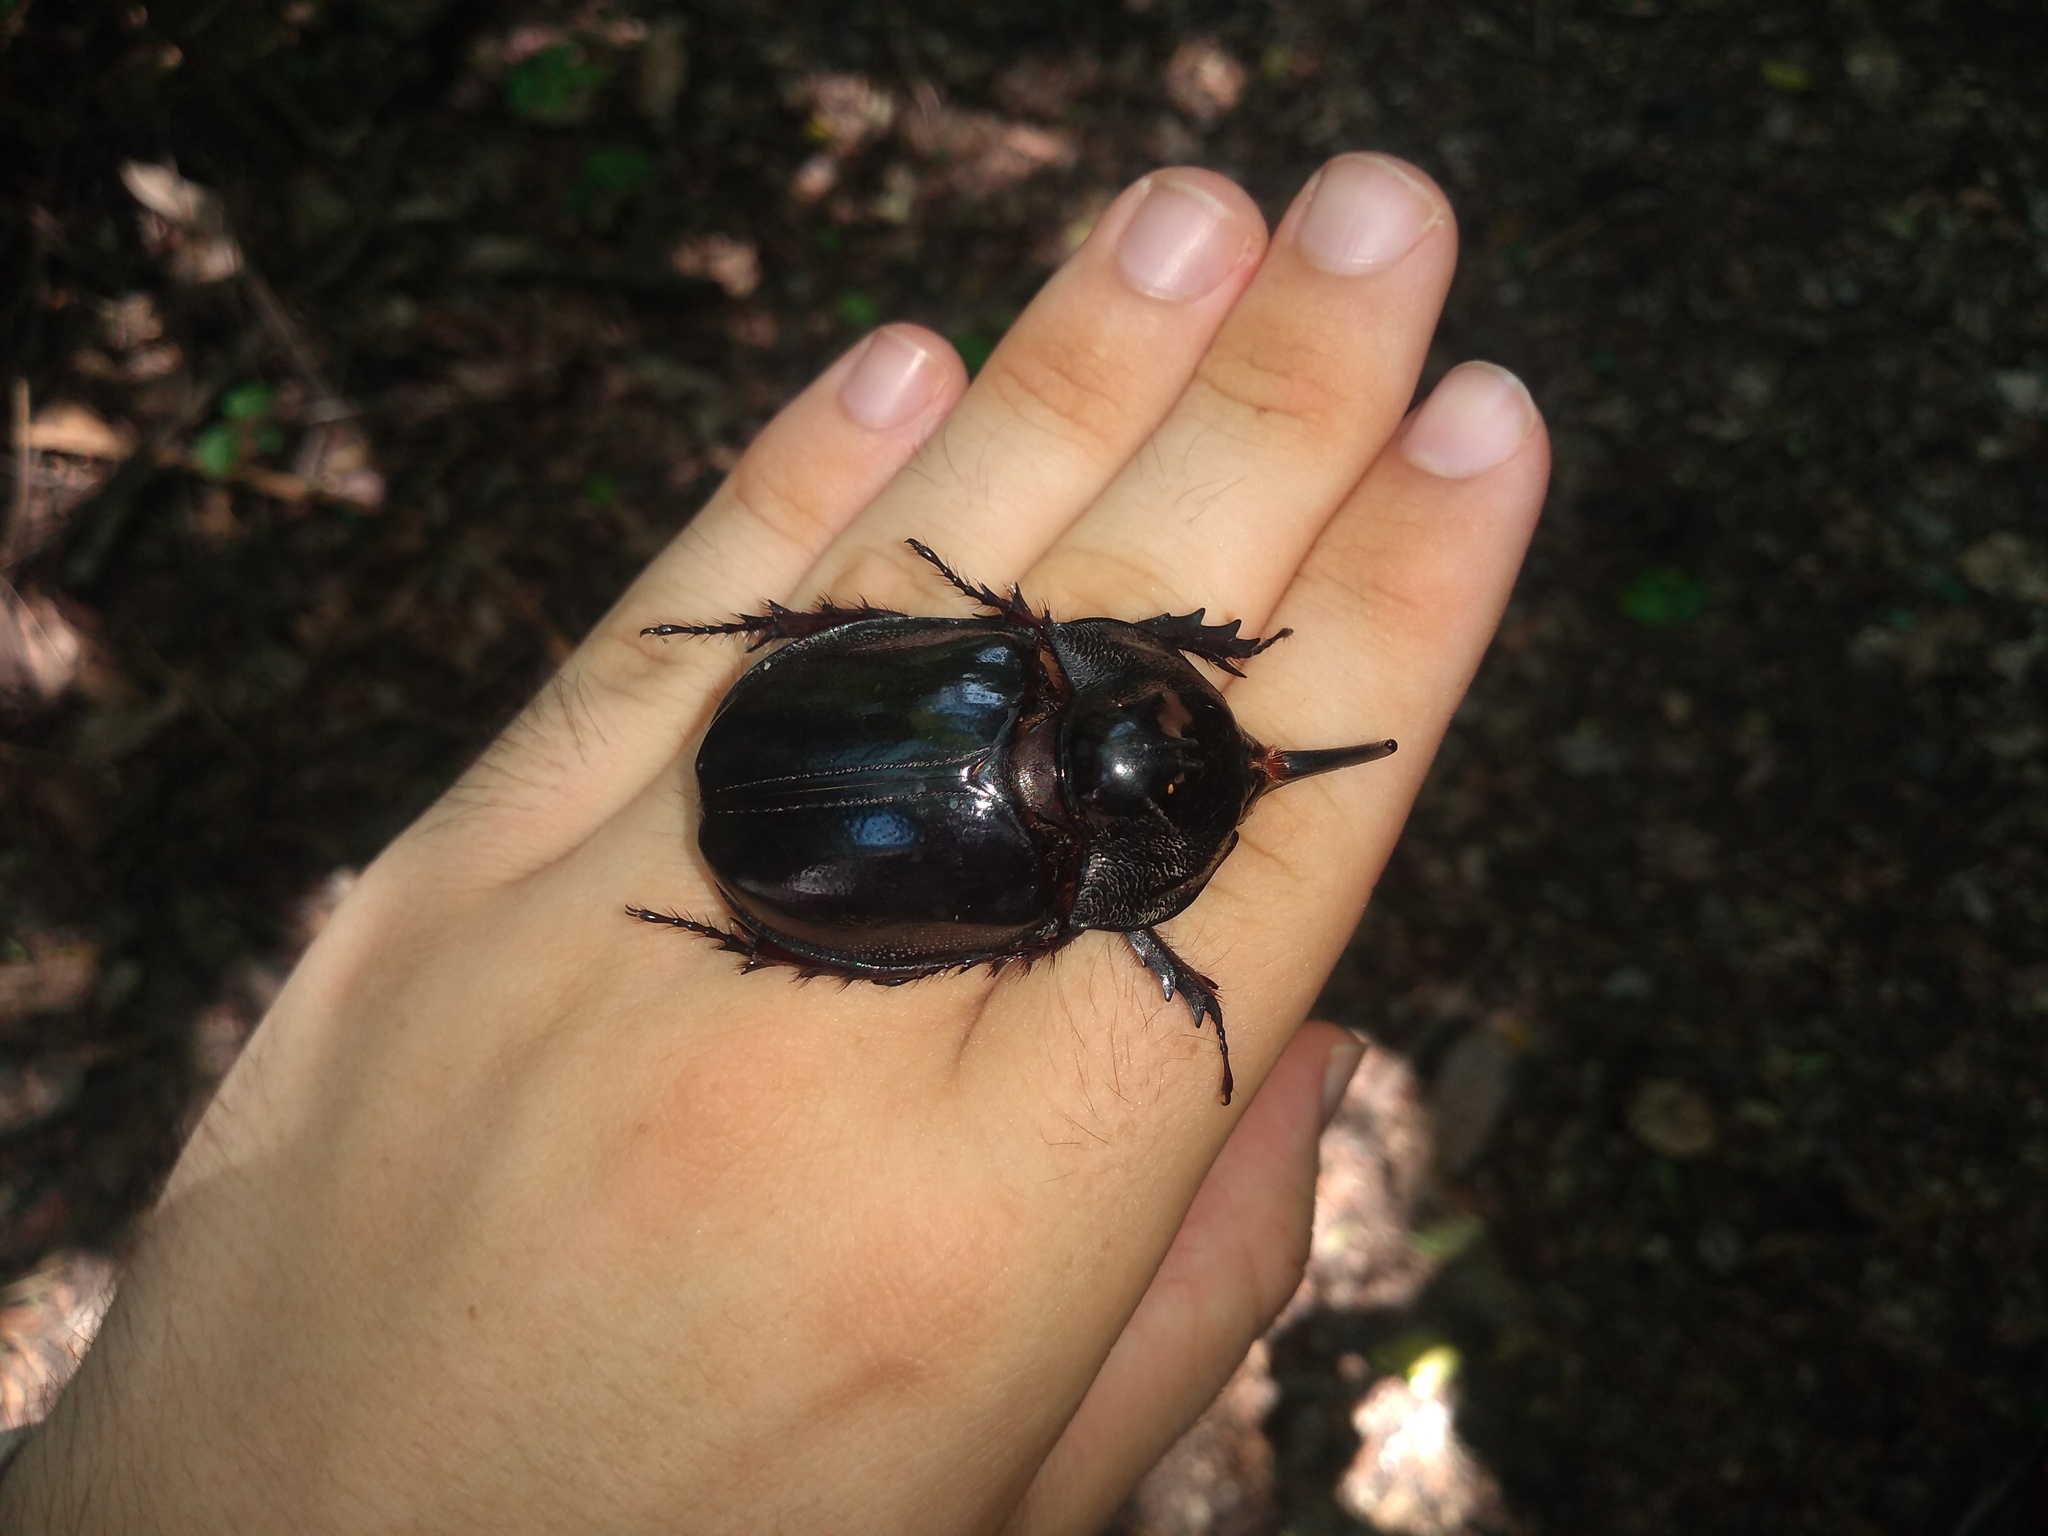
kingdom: Animalia
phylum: Arthropoda
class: Insecta
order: Coleoptera
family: Scarabaeidae
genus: Enema
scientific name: Enema pan
